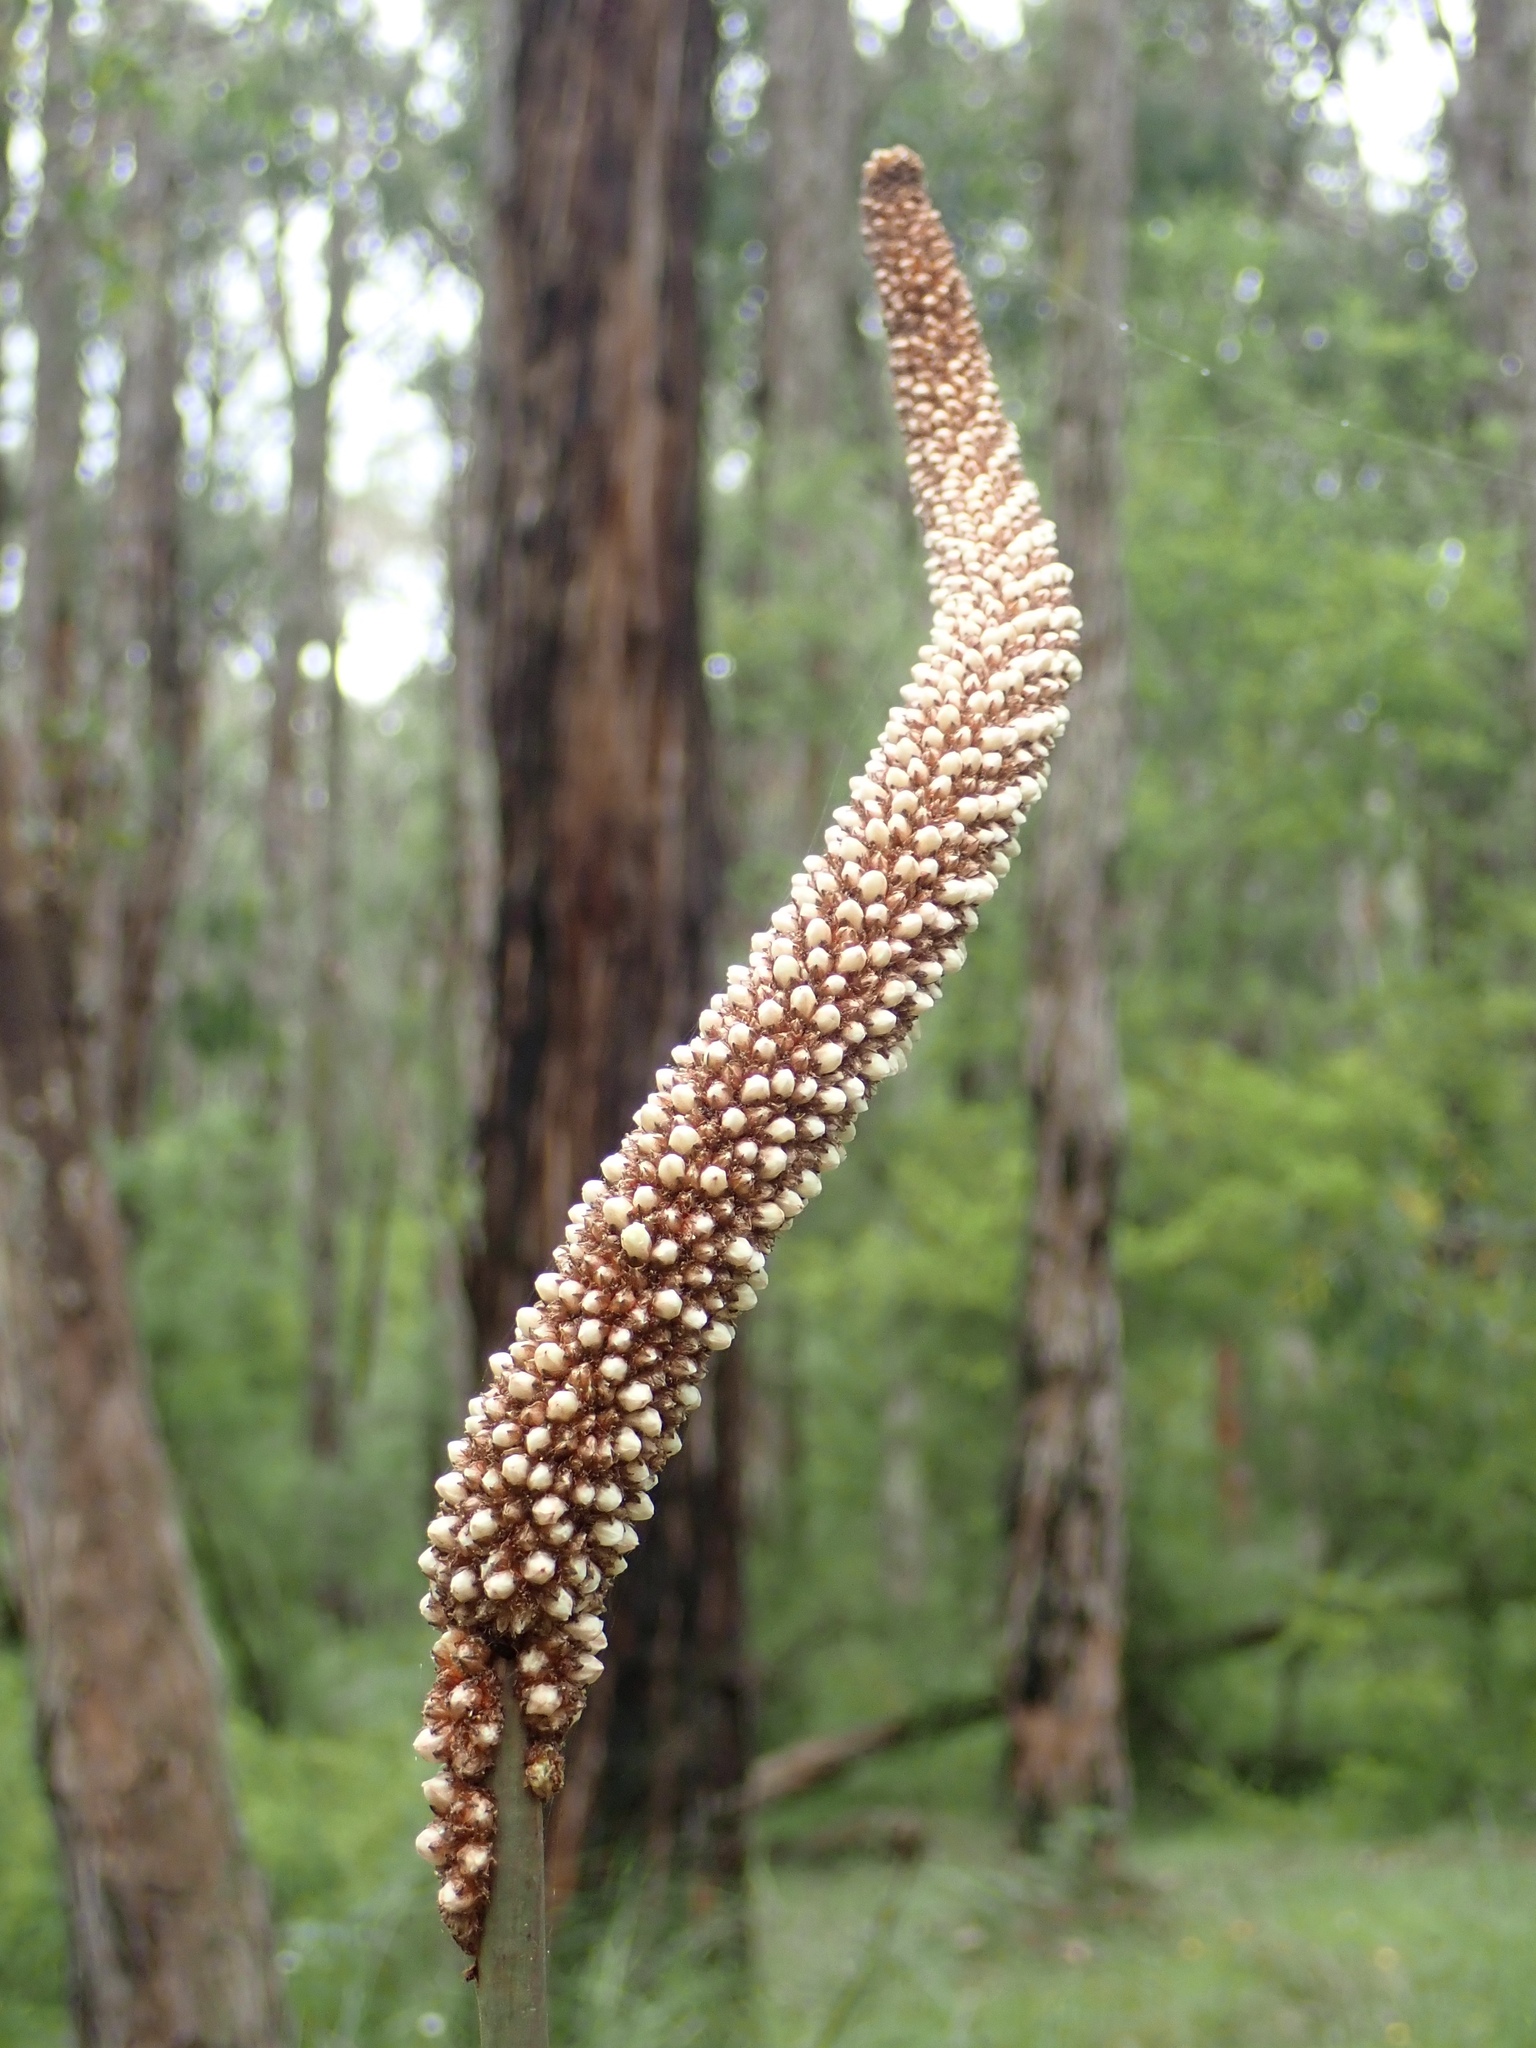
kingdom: Plantae
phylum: Tracheophyta
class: Liliopsida
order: Asparagales
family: Asphodelaceae
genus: Xanthorrhoea
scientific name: Xanthorrhoea minor
